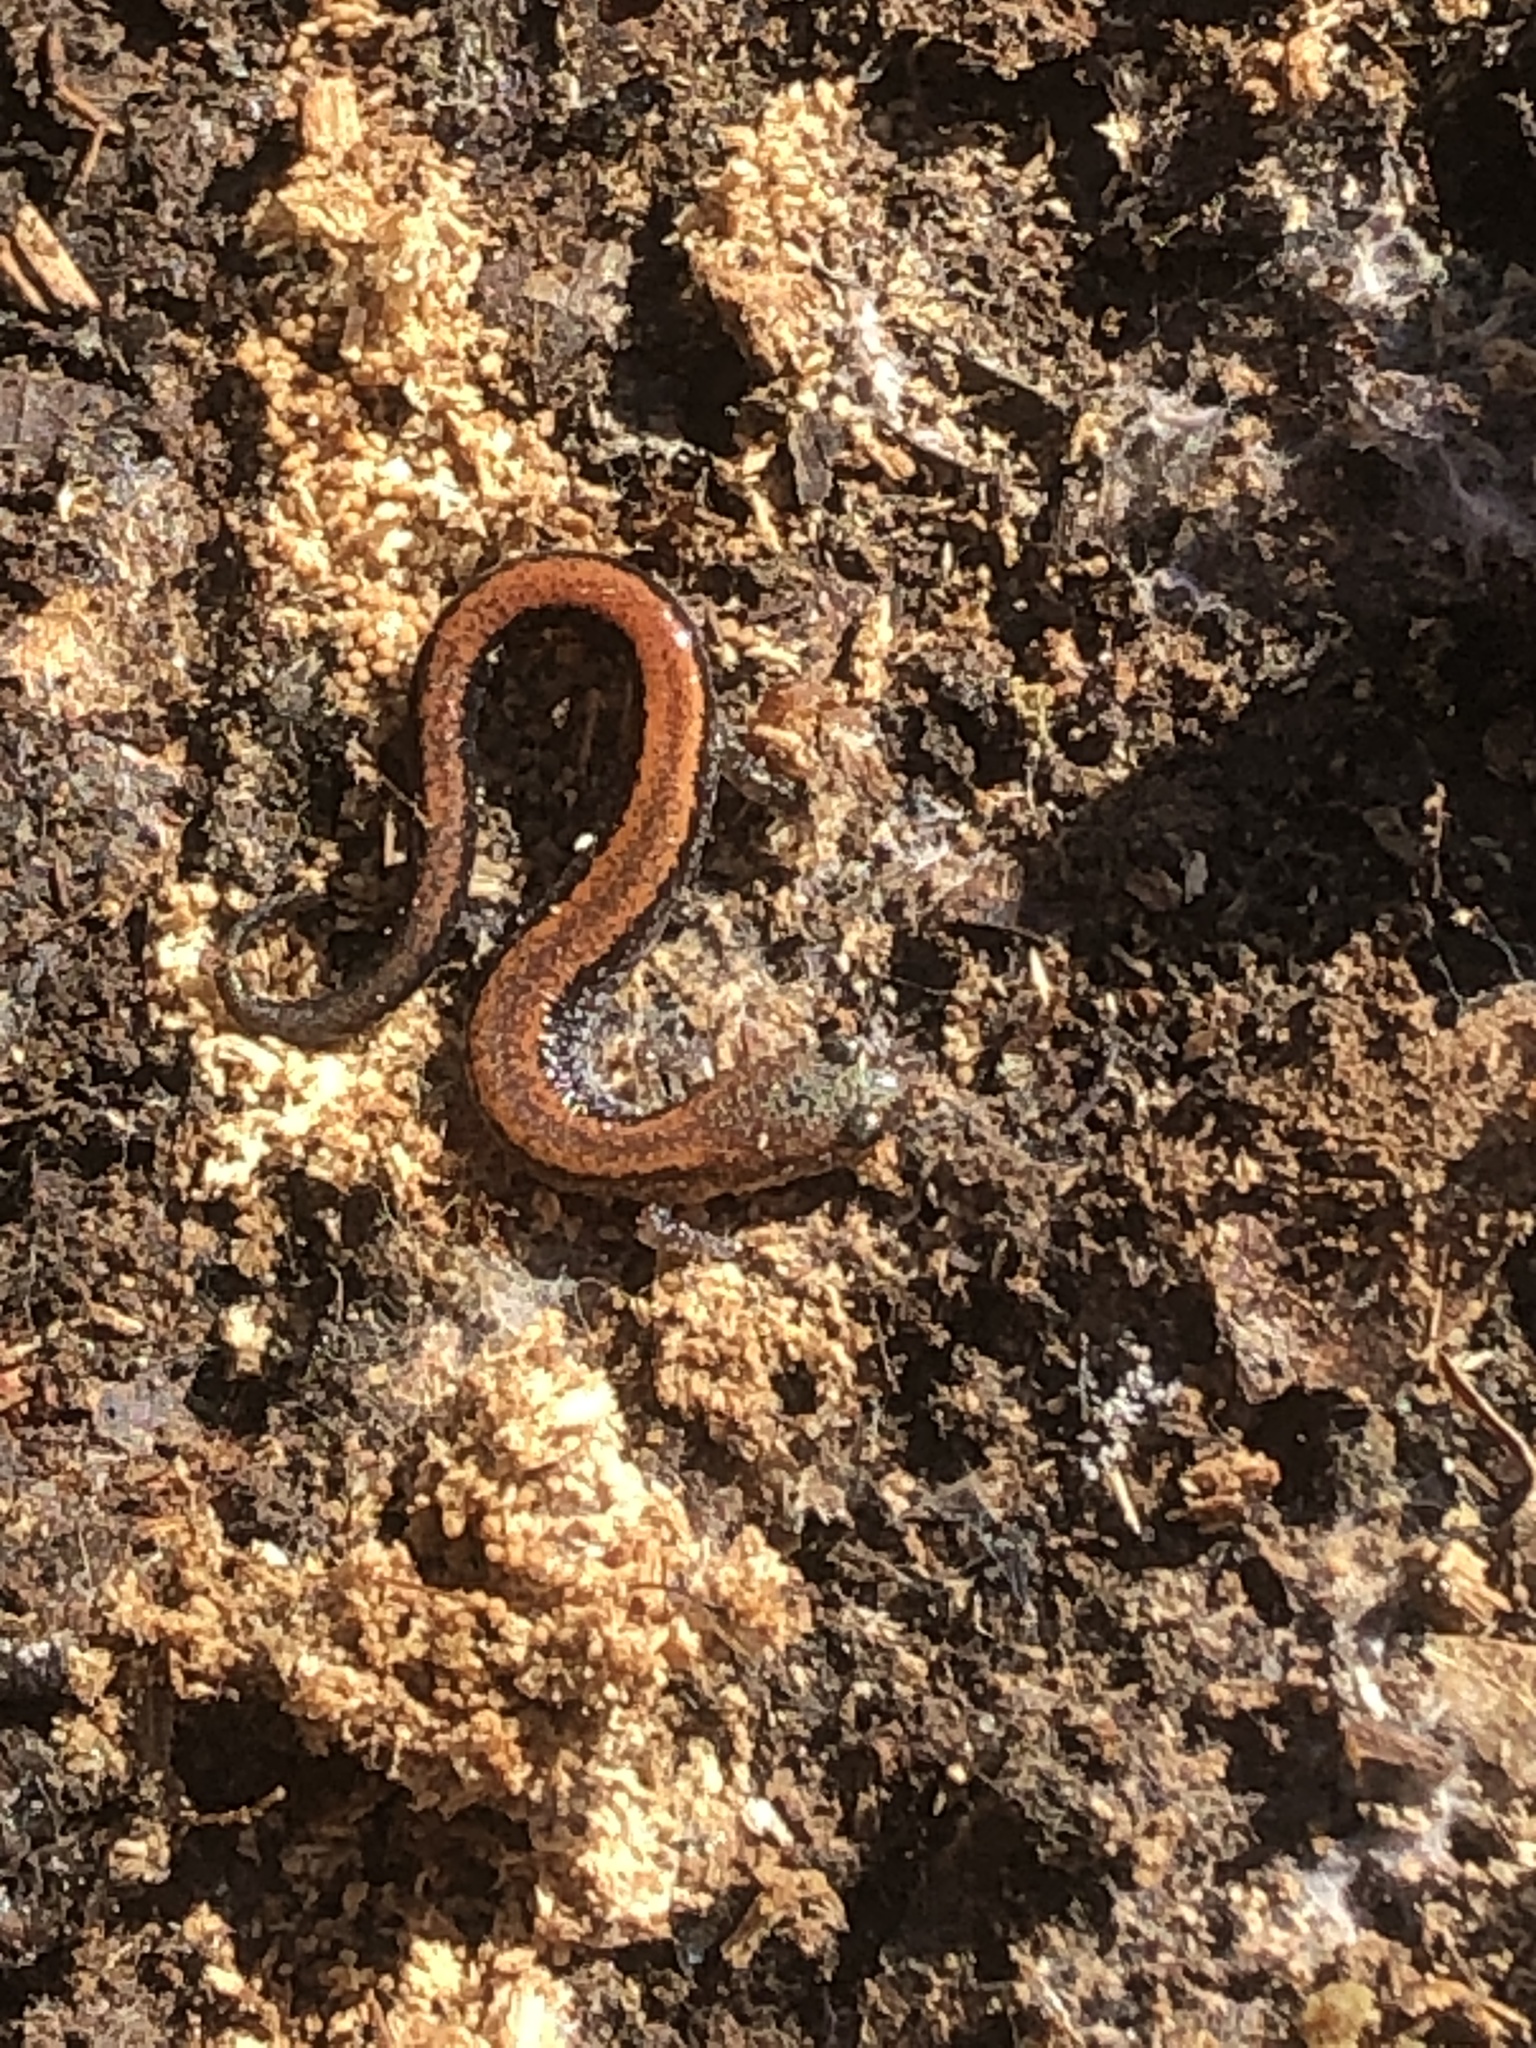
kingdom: Animalia
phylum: Chordata
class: Amphibia
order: Caudata
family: Plethodontidae
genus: Plethodon
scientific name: Plethodon cinereus
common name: Redback salamander
